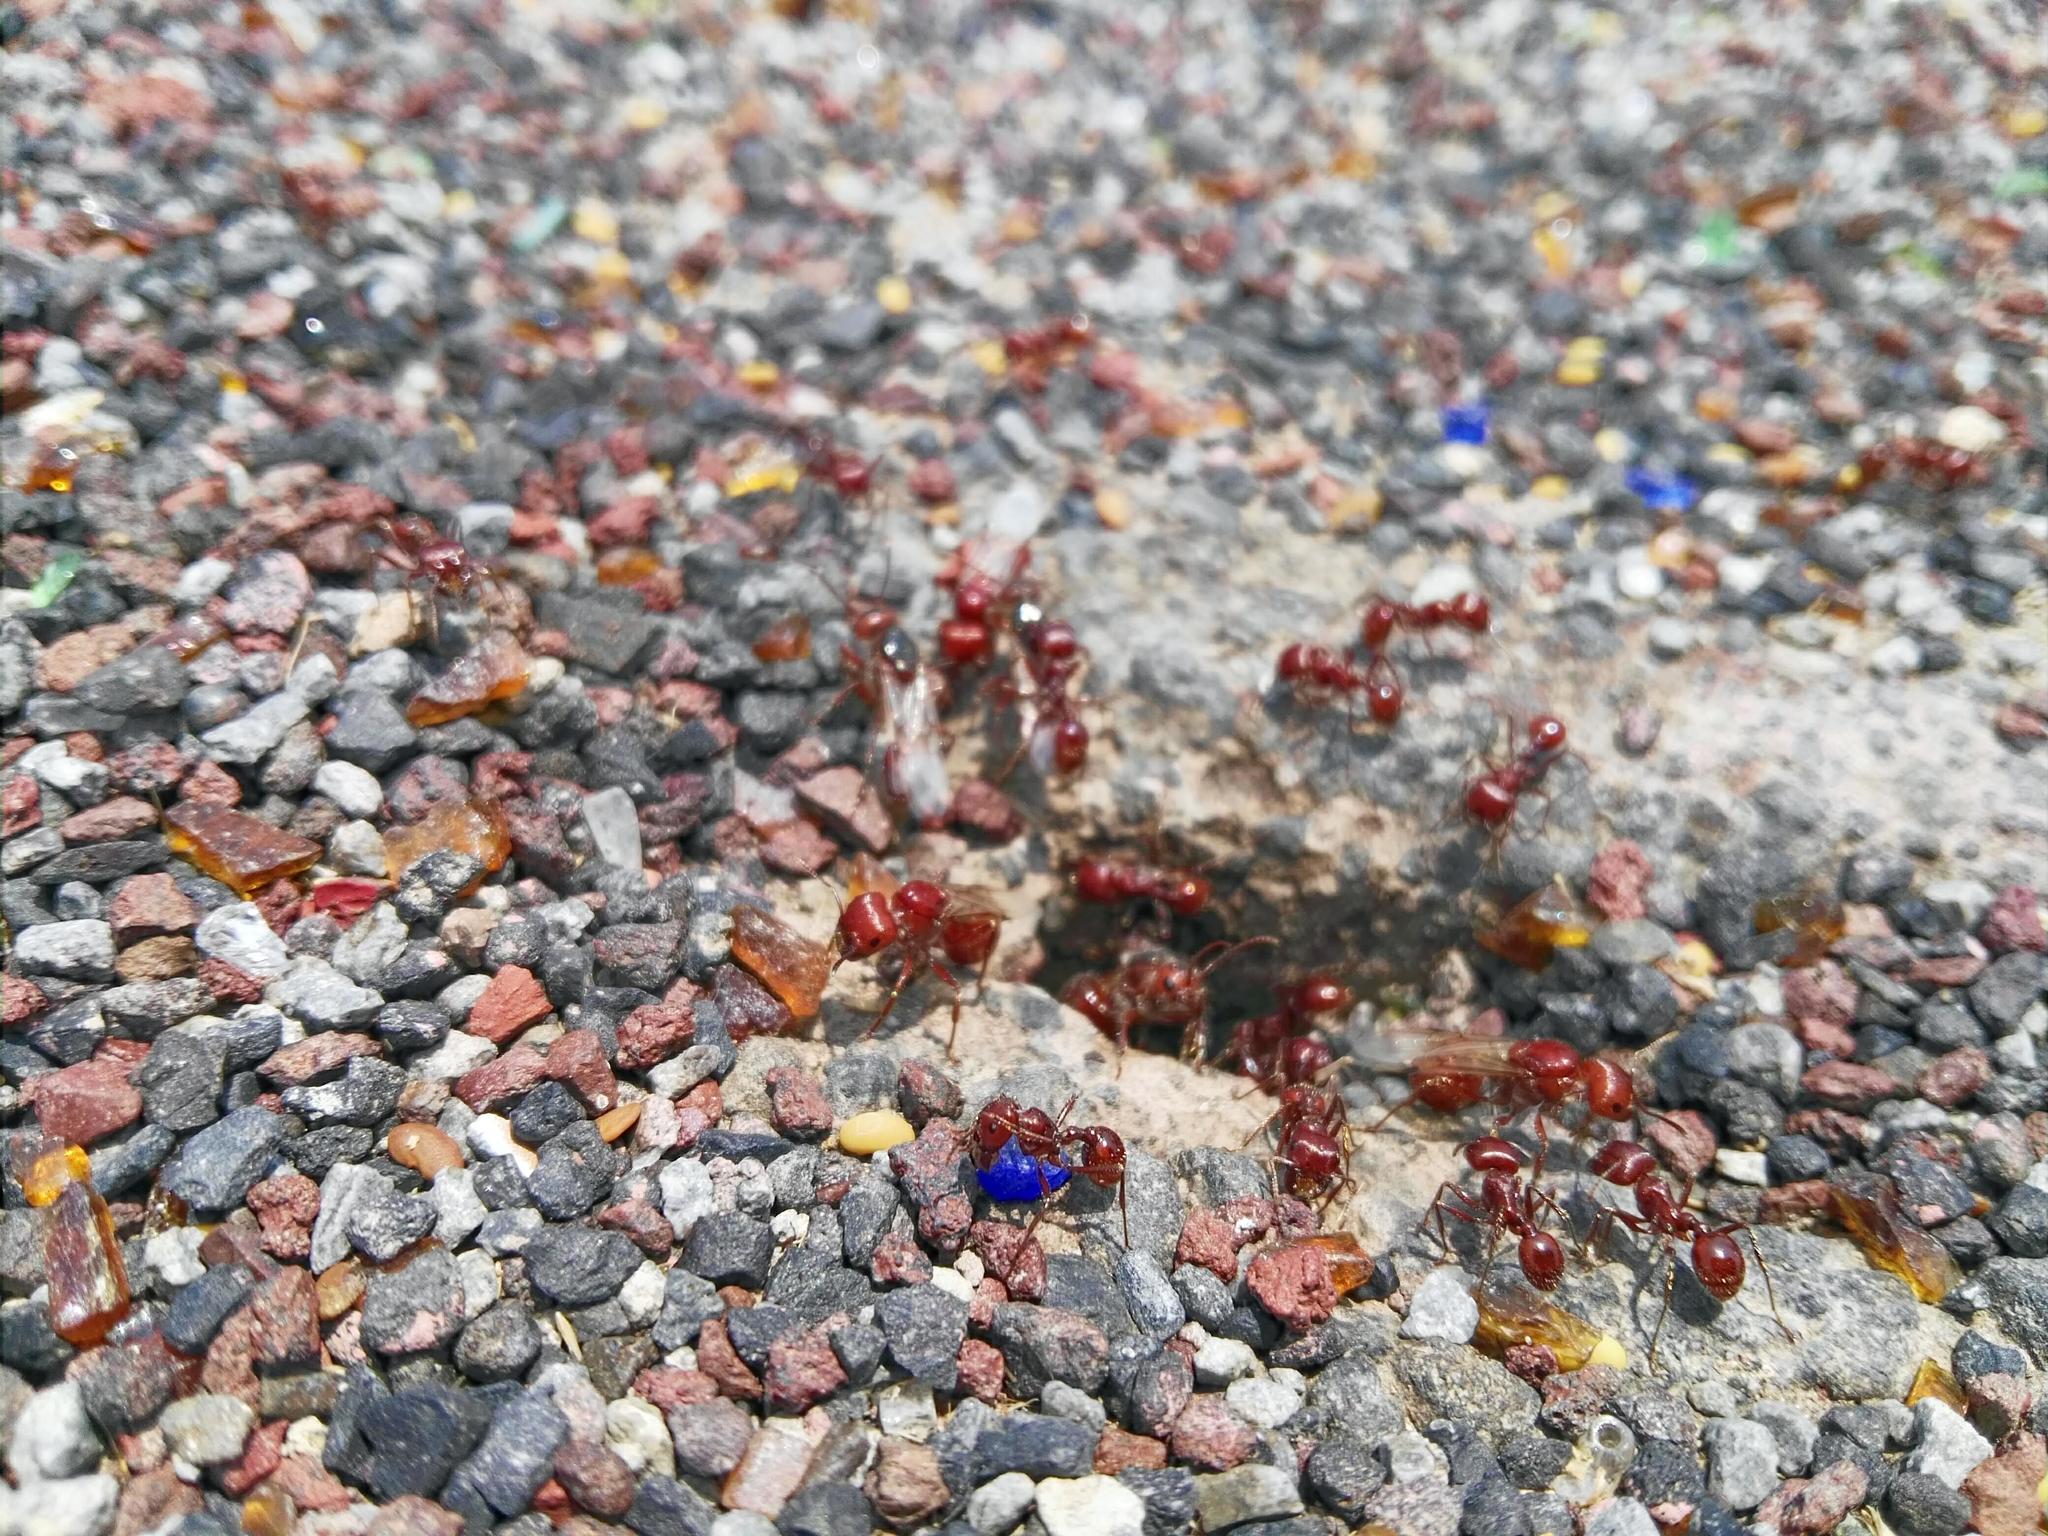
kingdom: Animalia
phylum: Arthropoda
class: Insecta
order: Hymenoptera
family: Formicidae
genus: Pogonomyrmex
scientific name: Pogonomyrmex barbatus
